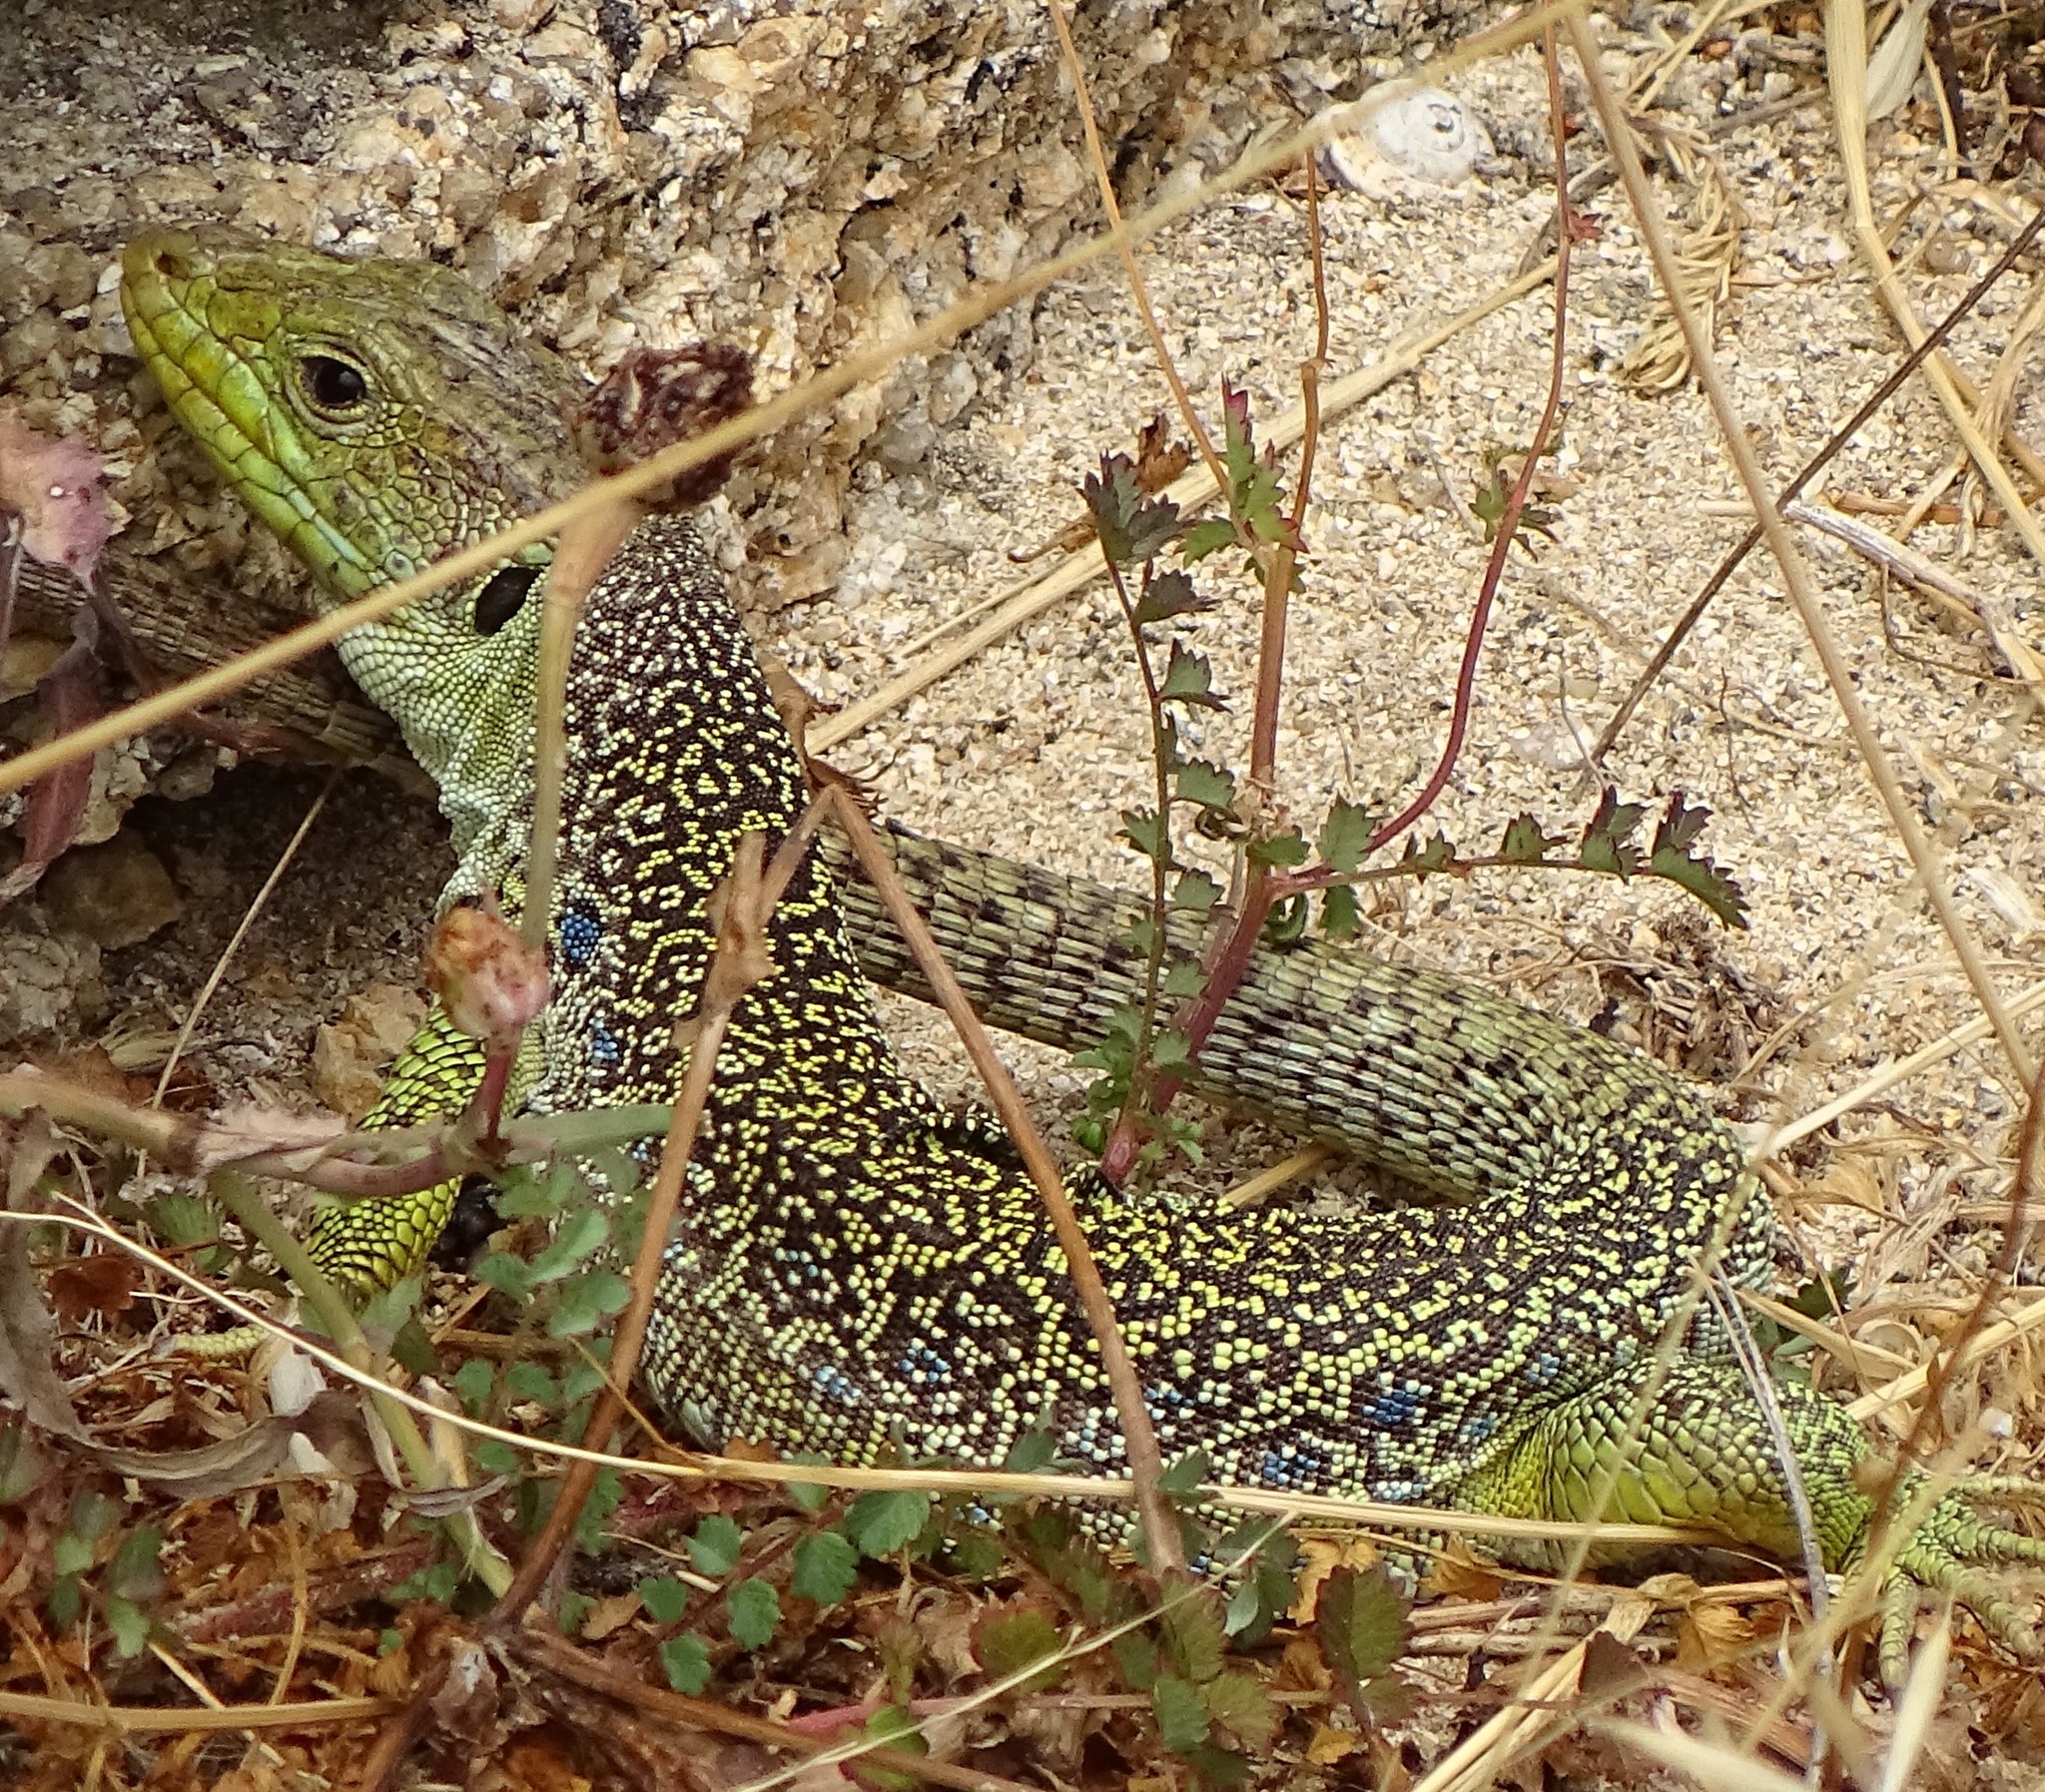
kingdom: Animalia
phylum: Chordata
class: Squamata
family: Lacertidae
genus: Timon
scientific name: Timon lepidus
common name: Ocellated lizard
